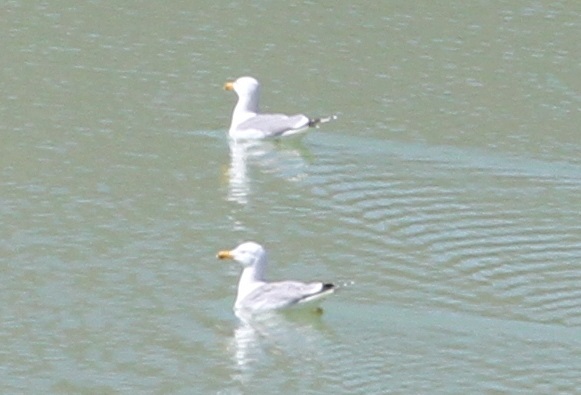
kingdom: Animalia
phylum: Chordata
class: Aves
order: Charadriiformes
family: Laridae
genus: Larus
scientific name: Larus michahellis
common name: Yellow-legged gull
